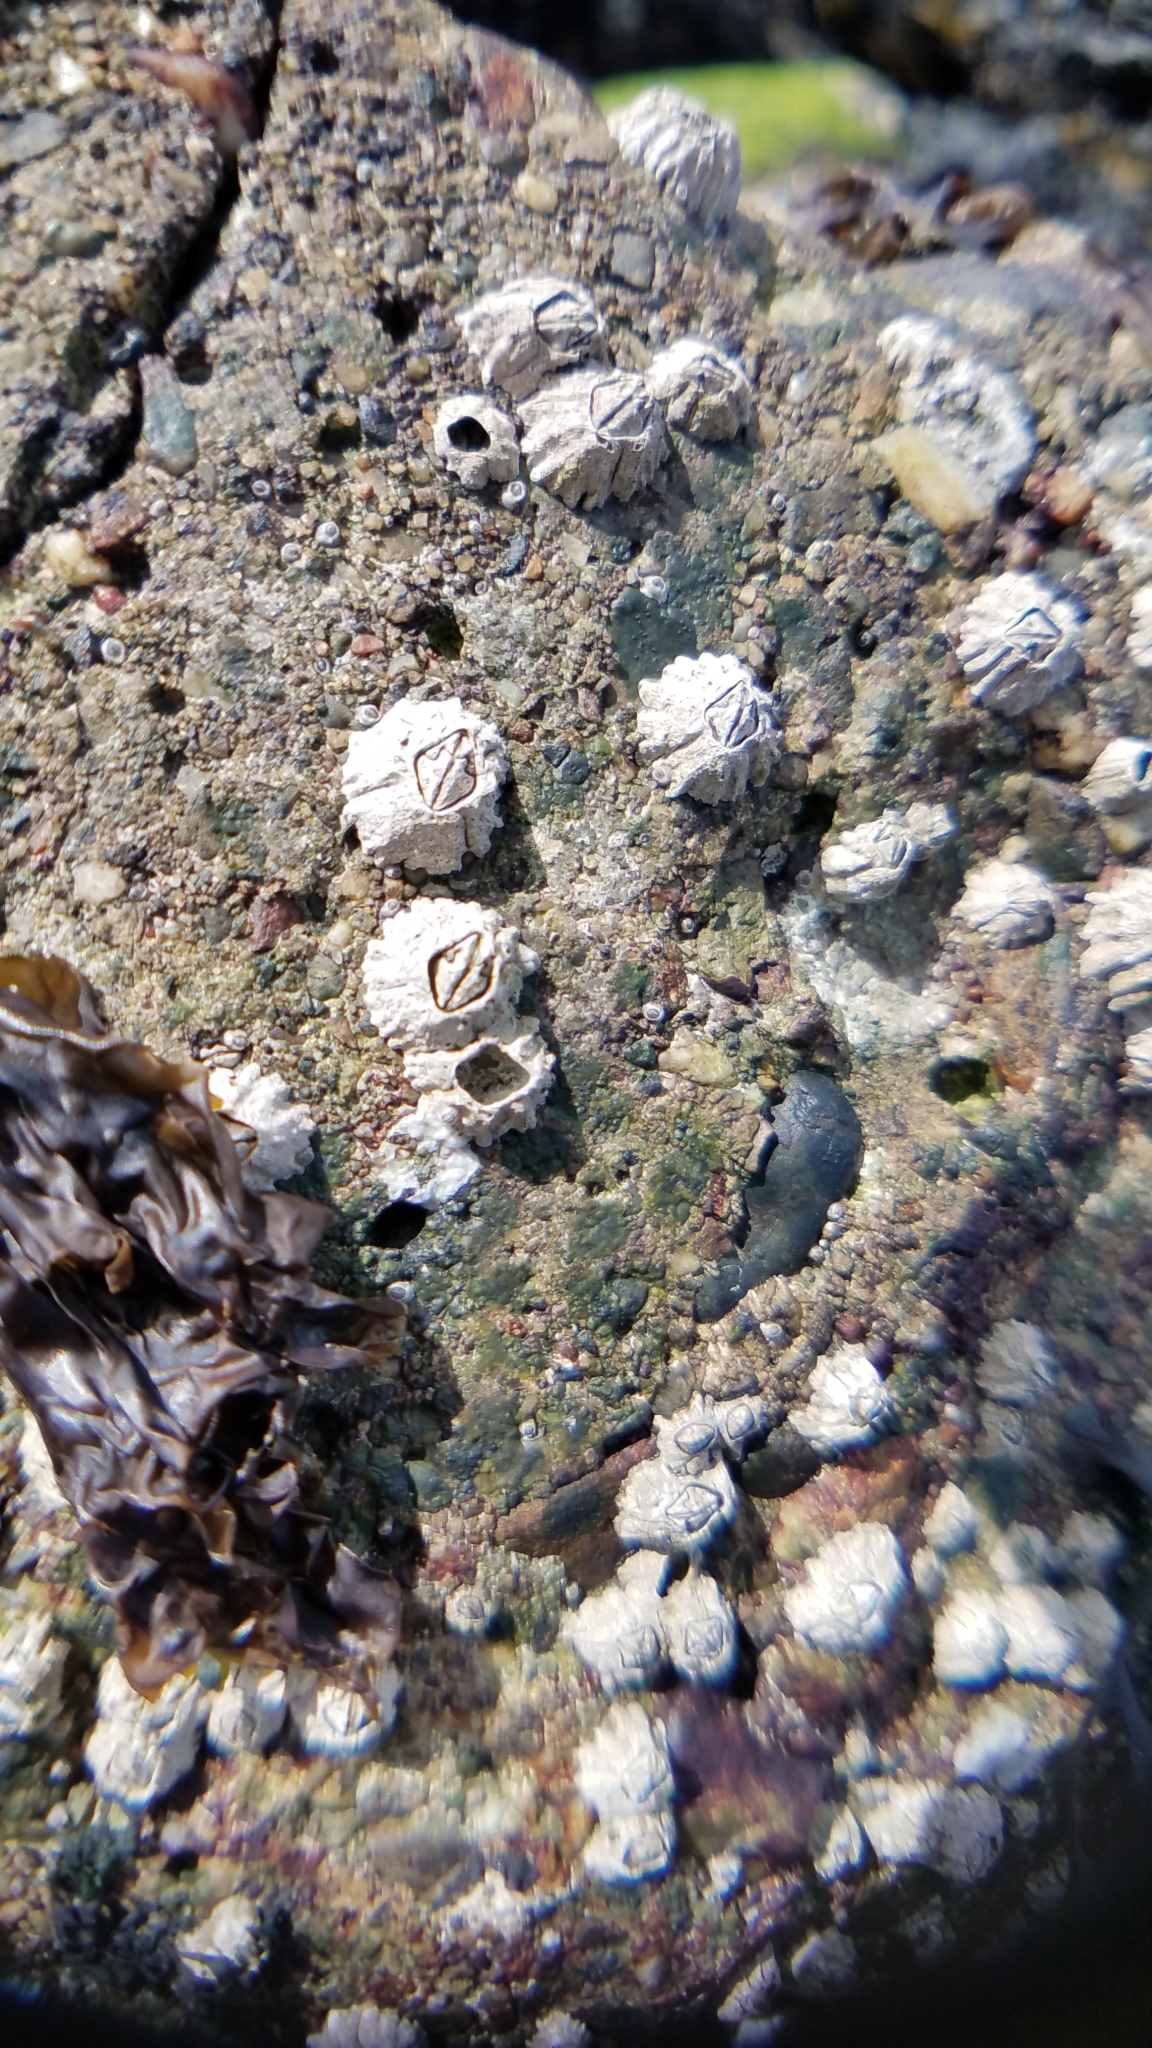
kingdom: Animalia
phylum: Arthropoda
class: Maxillopoda
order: Sessilia
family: Balanidae
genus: Balanus
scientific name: Balanus glandula
